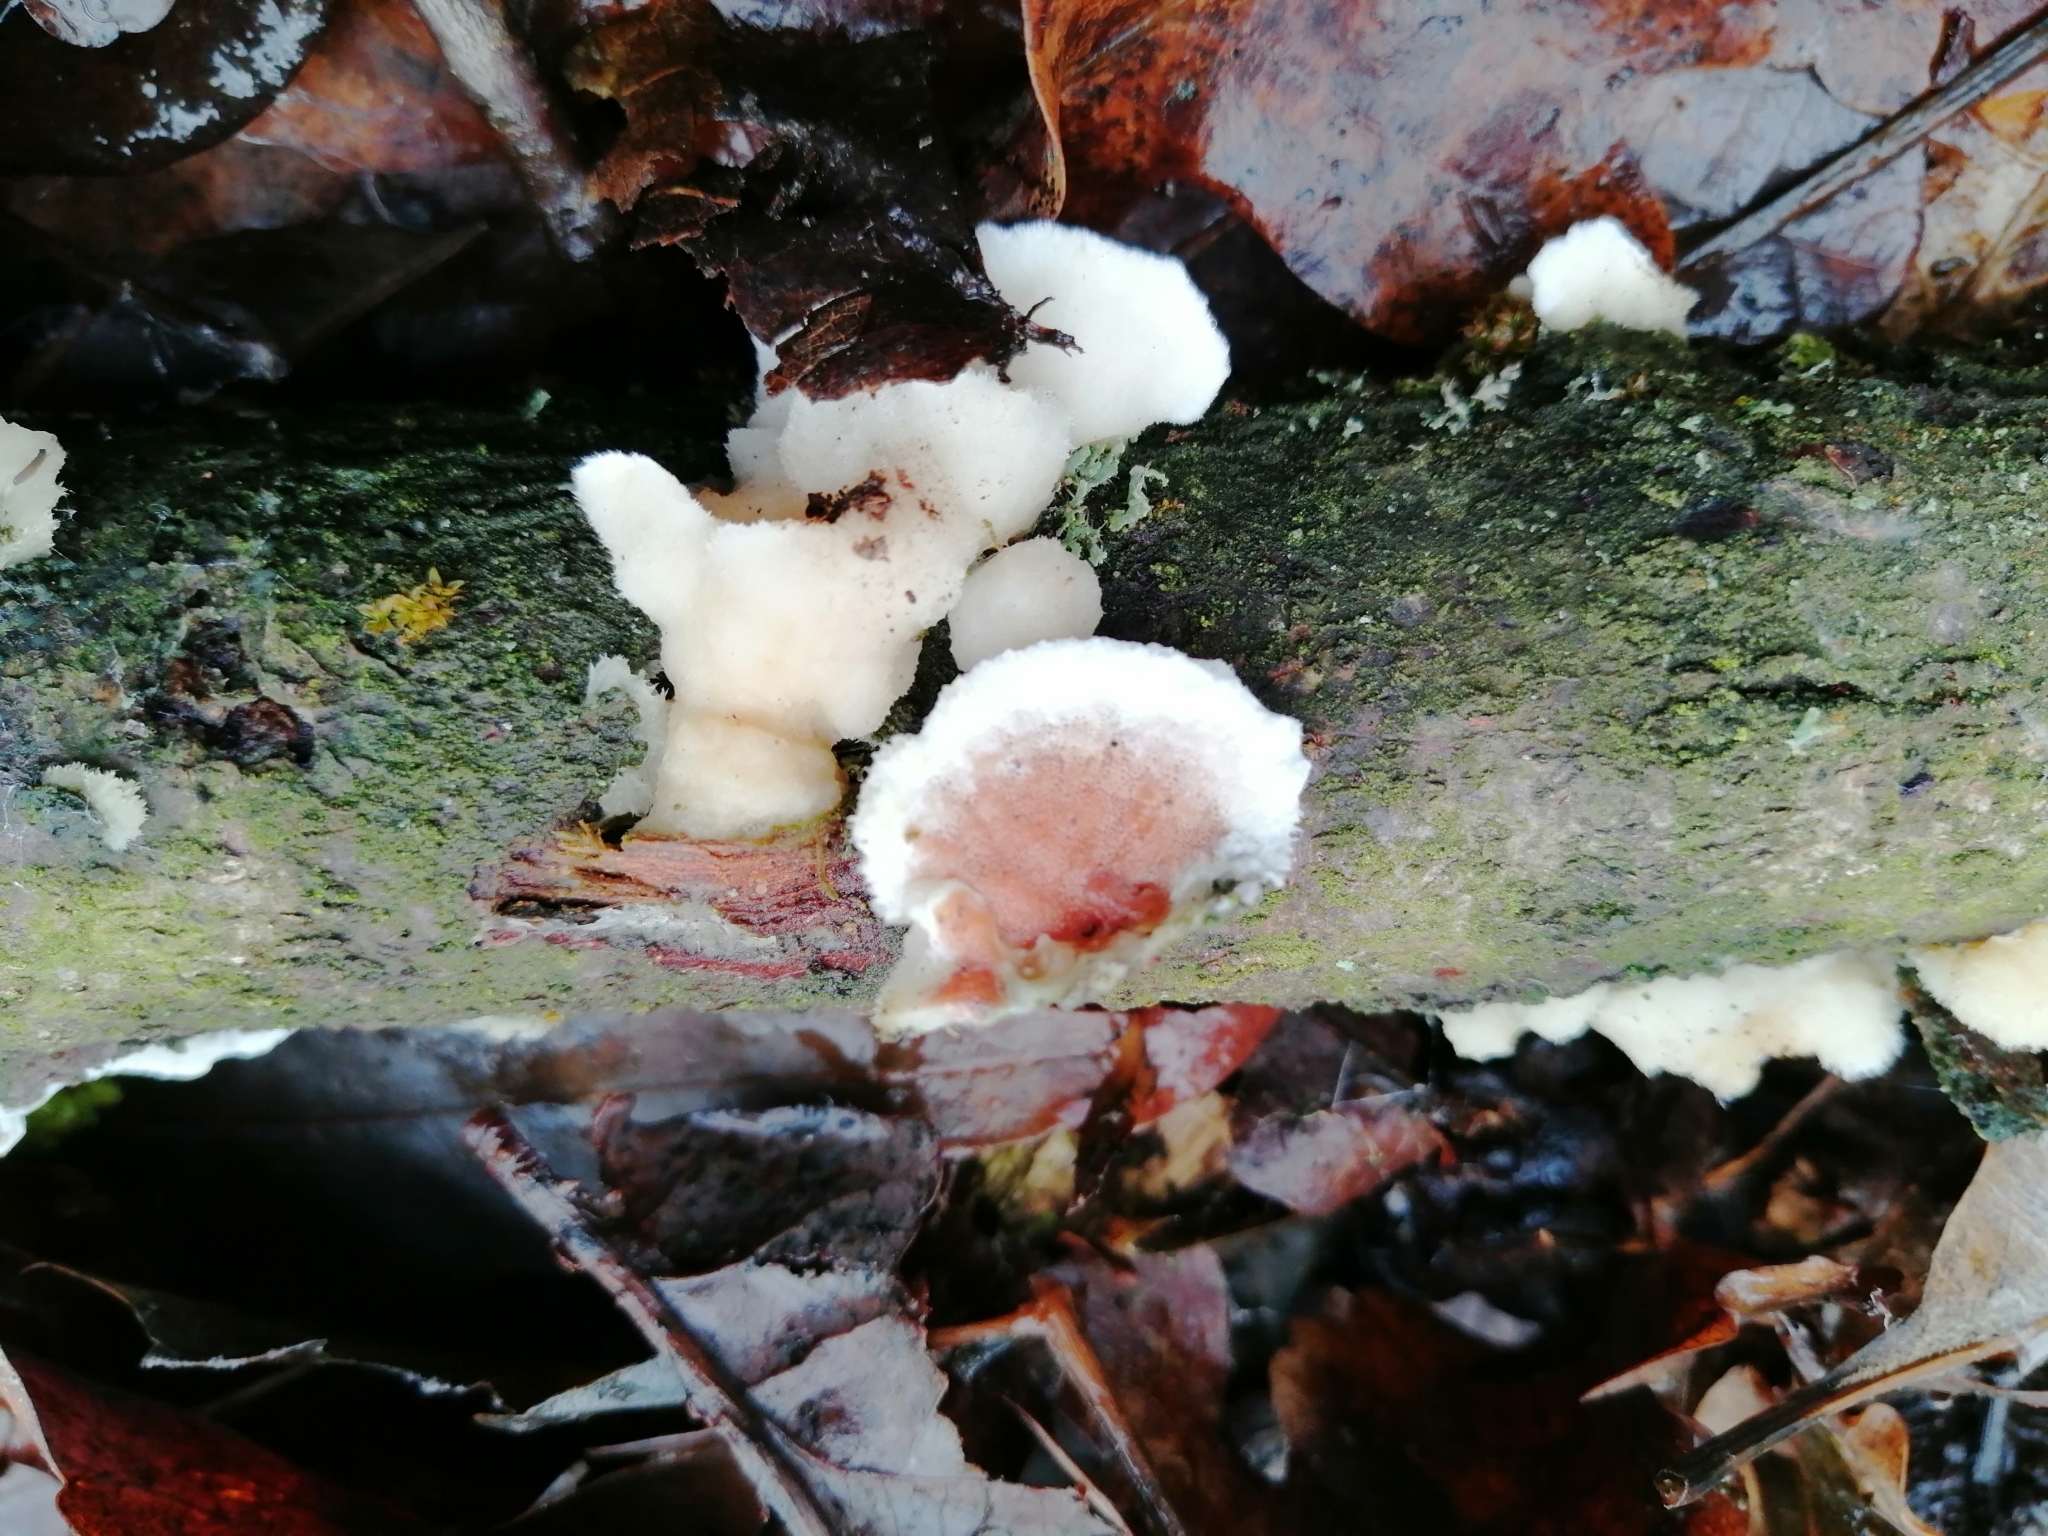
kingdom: Fungi
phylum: Basidiomycota
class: Agaricomycetes
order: Polyporales
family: Irpicaceae
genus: Vitreoporus
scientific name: Vitreoporus dichrous
